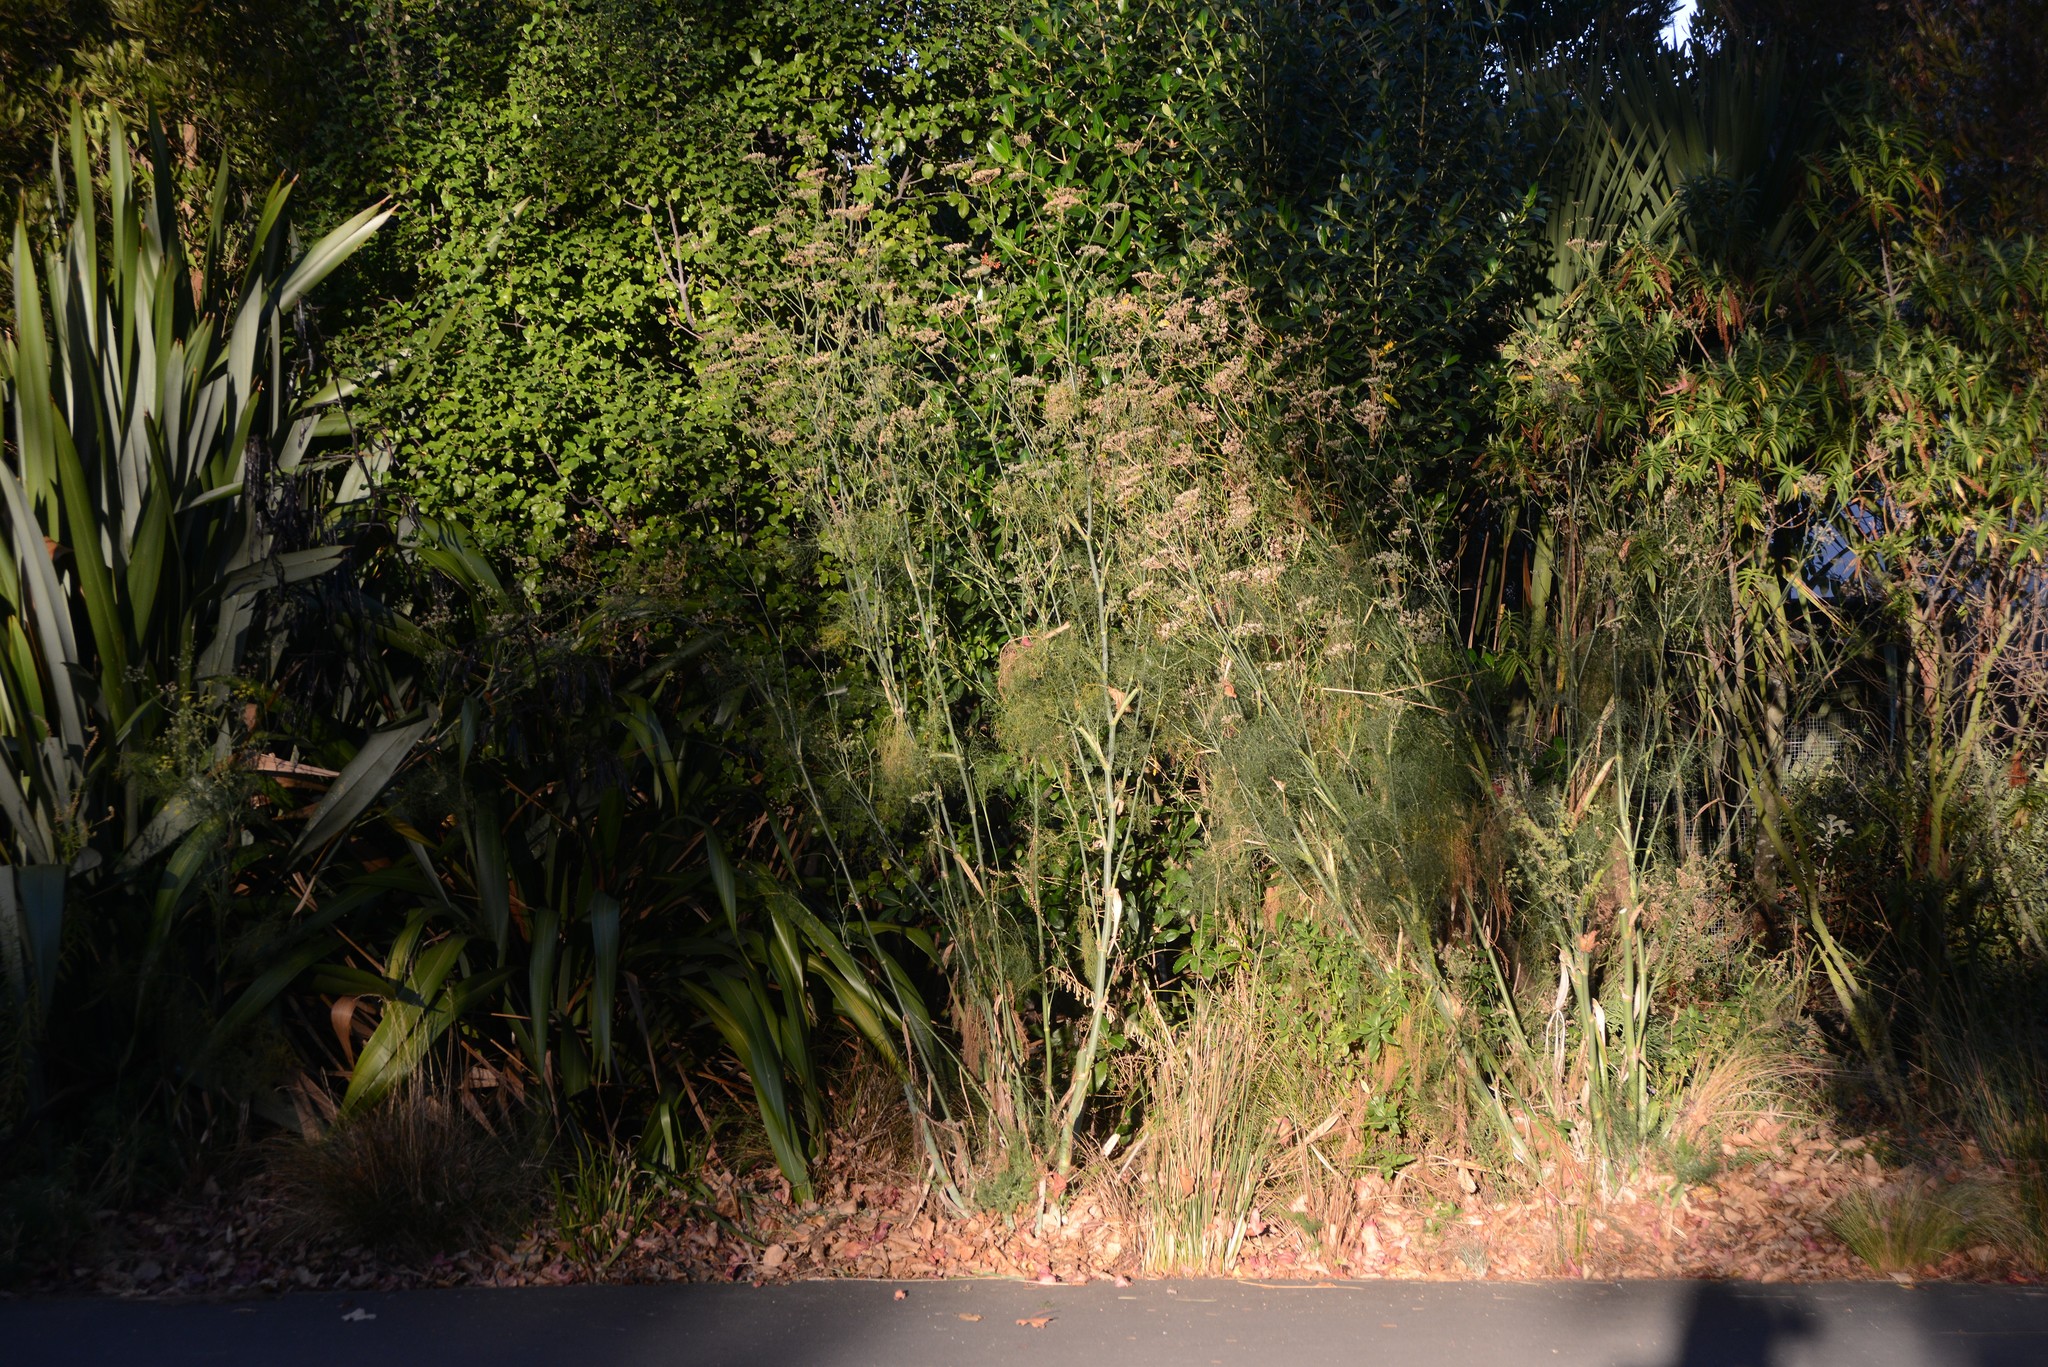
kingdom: Plantae
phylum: Tracheophyta
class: Magnoliopsida
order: Apiales
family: Apiaceae
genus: Foeniculum
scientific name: Foeniculum vulgare
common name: Fennel
